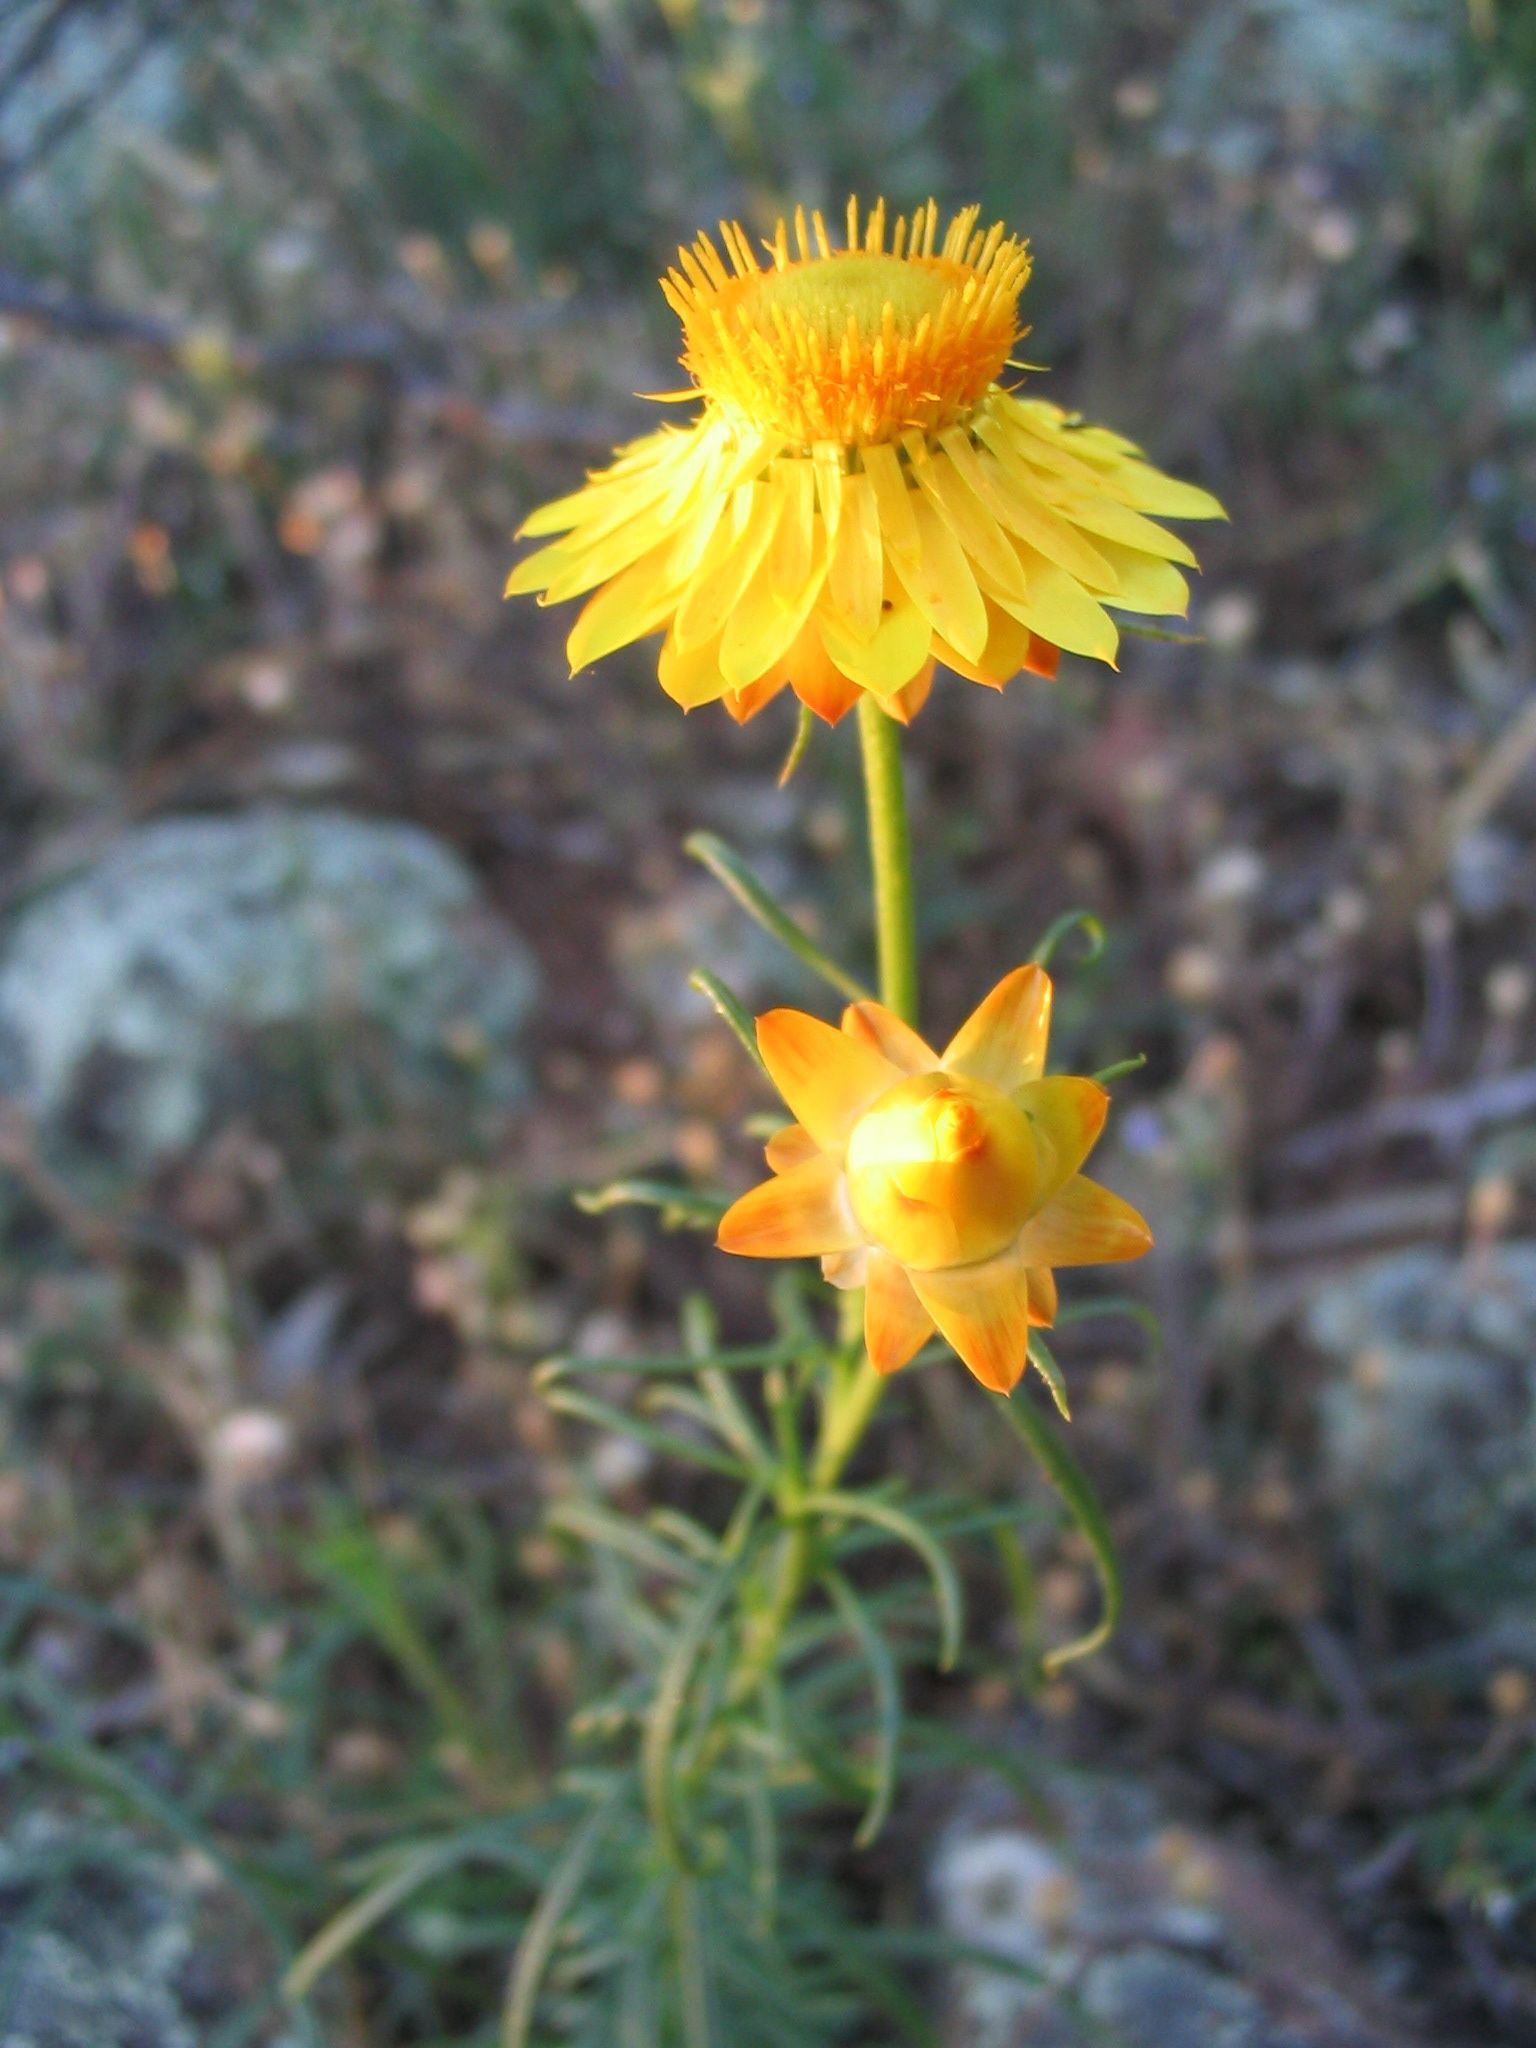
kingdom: Plantae
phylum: Tracheophyta
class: Magnoliopsida
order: Asterales
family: Asteraceae
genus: Xerochrysum
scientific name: Xerochrysum viscosum
